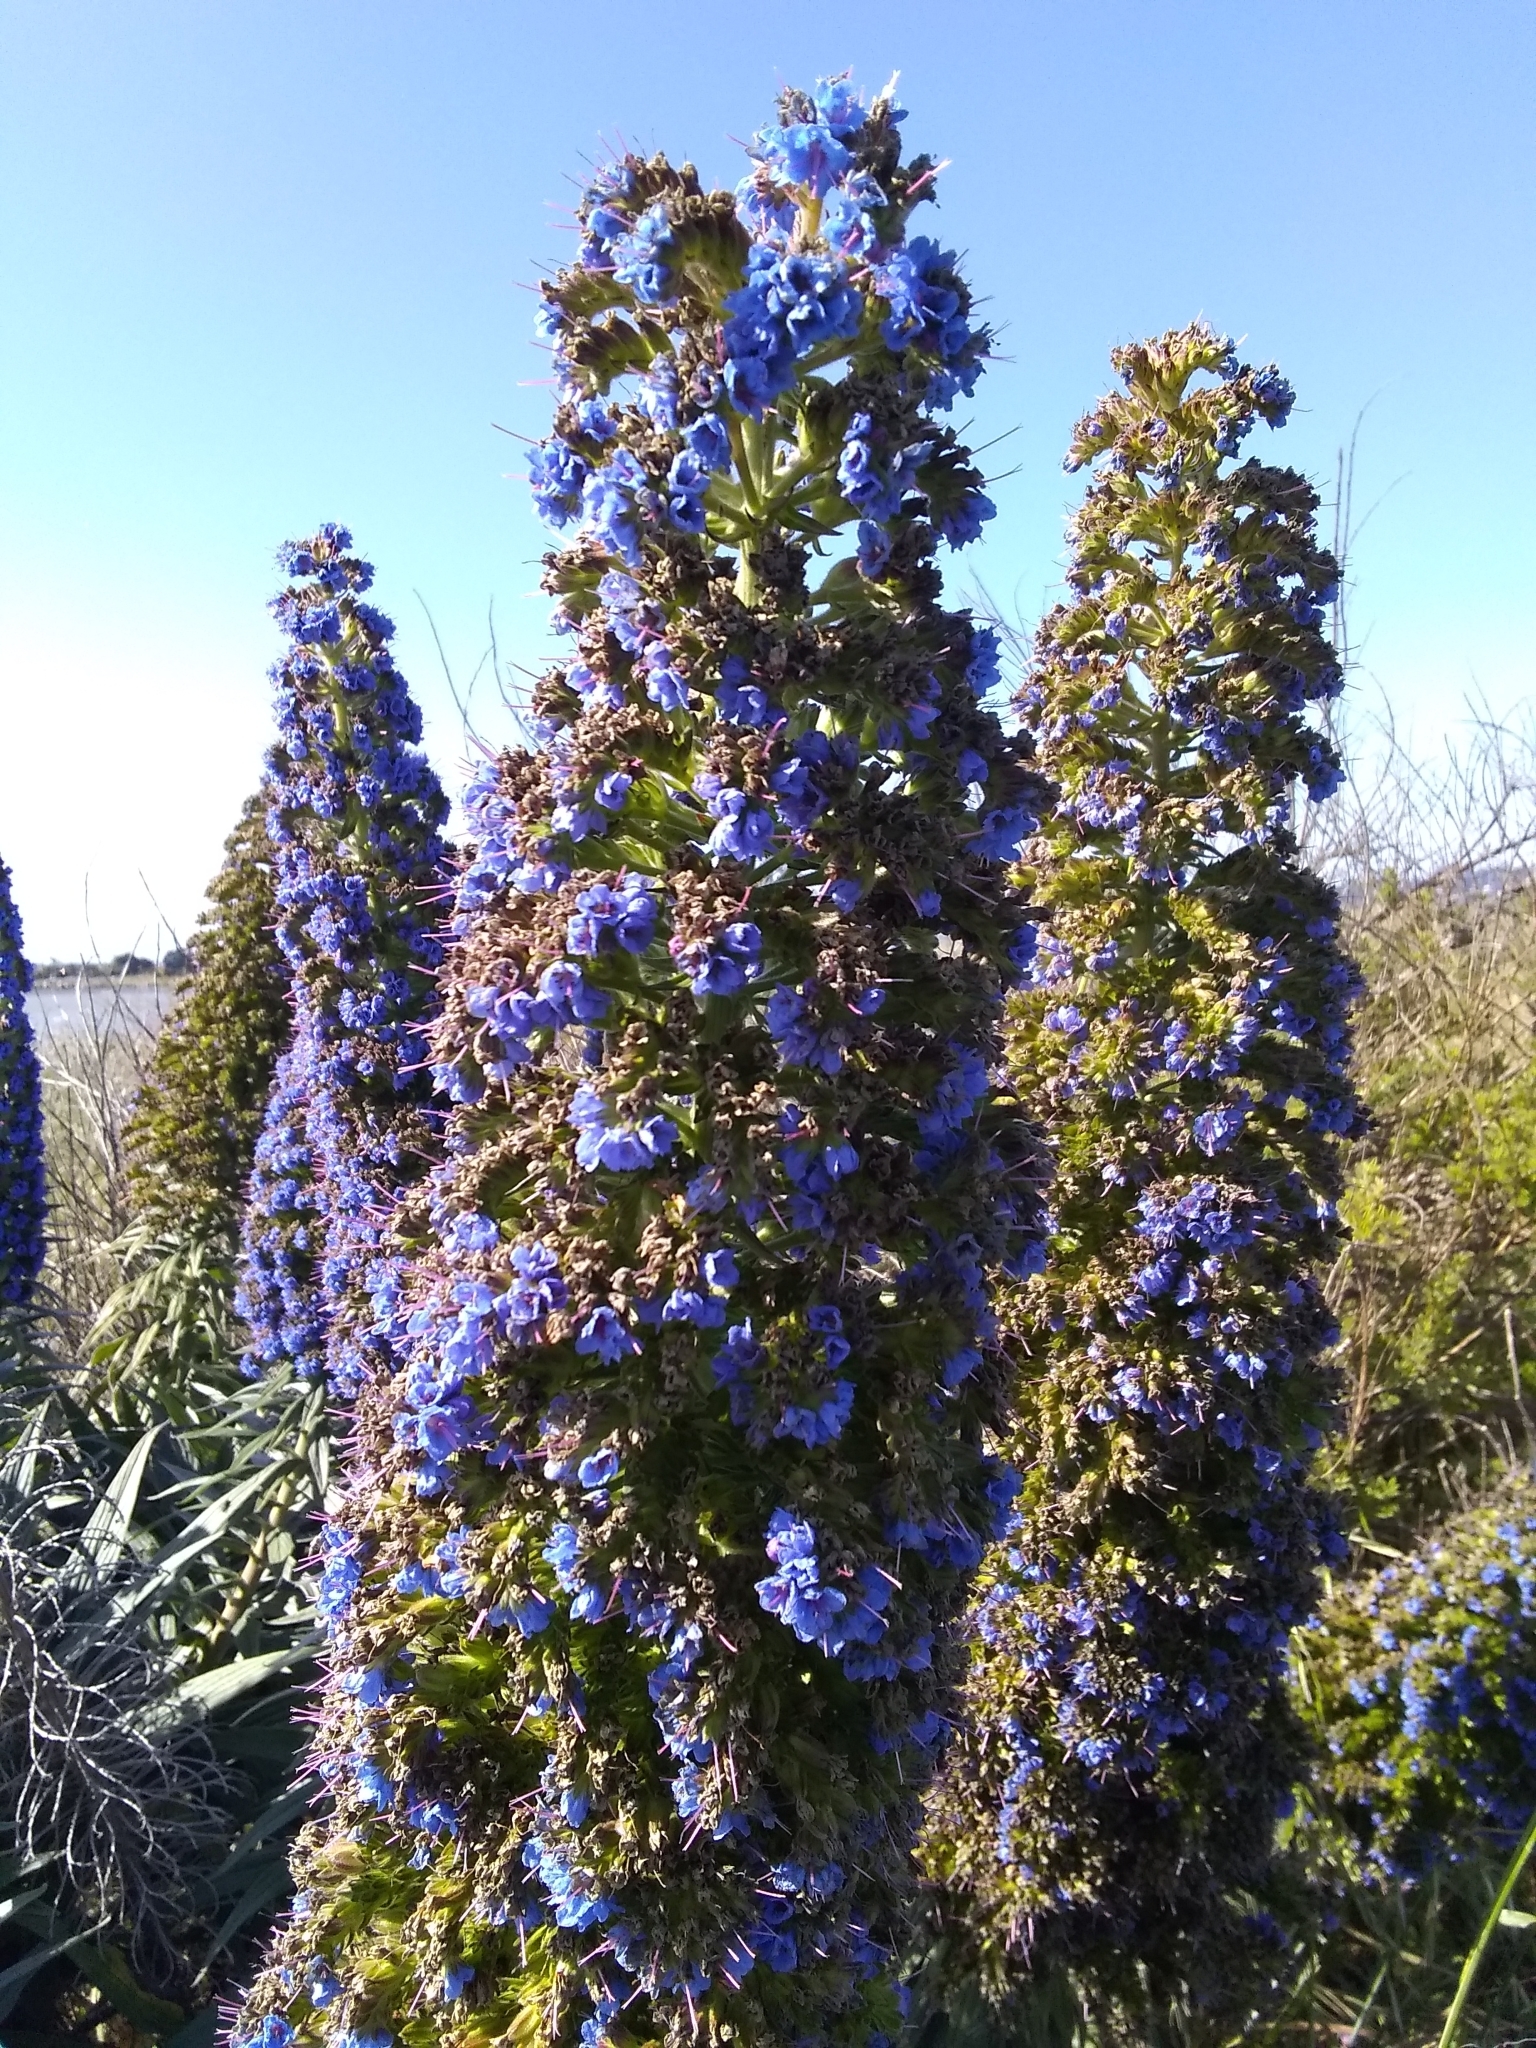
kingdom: Plantae
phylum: Tracheophyta
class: Magnoliopsida
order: Boraginales
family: Boraginaceae
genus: Echium
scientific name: Echium candicans
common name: Pride of madeira
